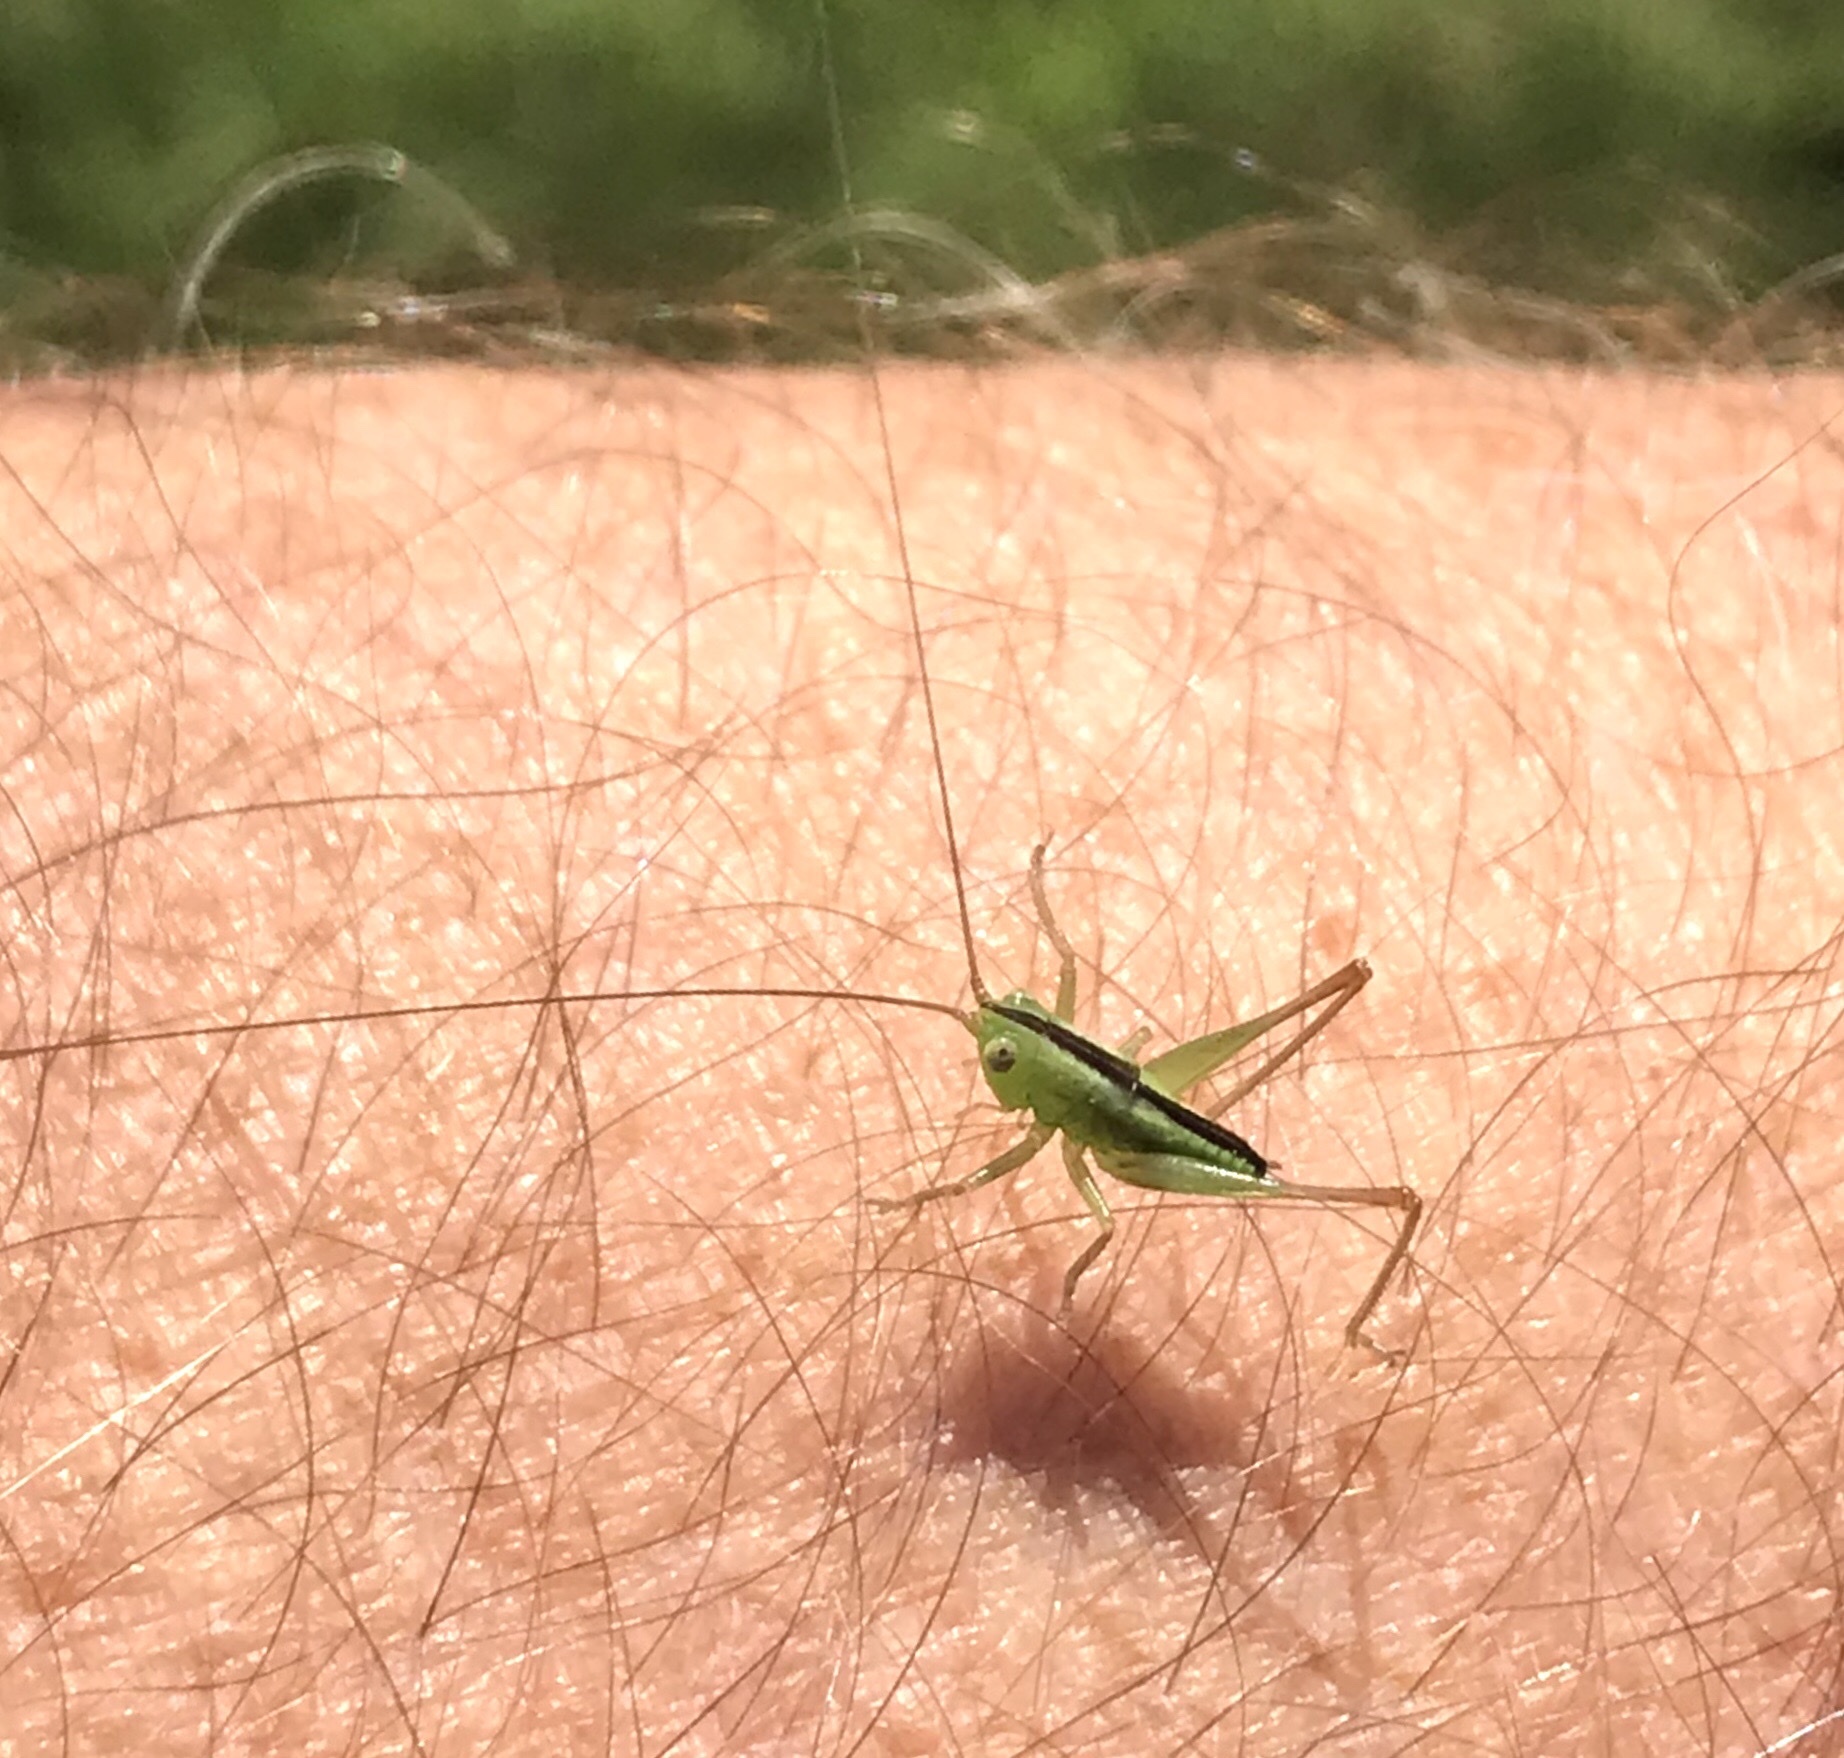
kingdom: Animalia
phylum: Arthropoda
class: Insecta
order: Orthoptera
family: Tettigoniidae
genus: Conocephalus
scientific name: Conocephalus fasciatus
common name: Slender meadow katydid
